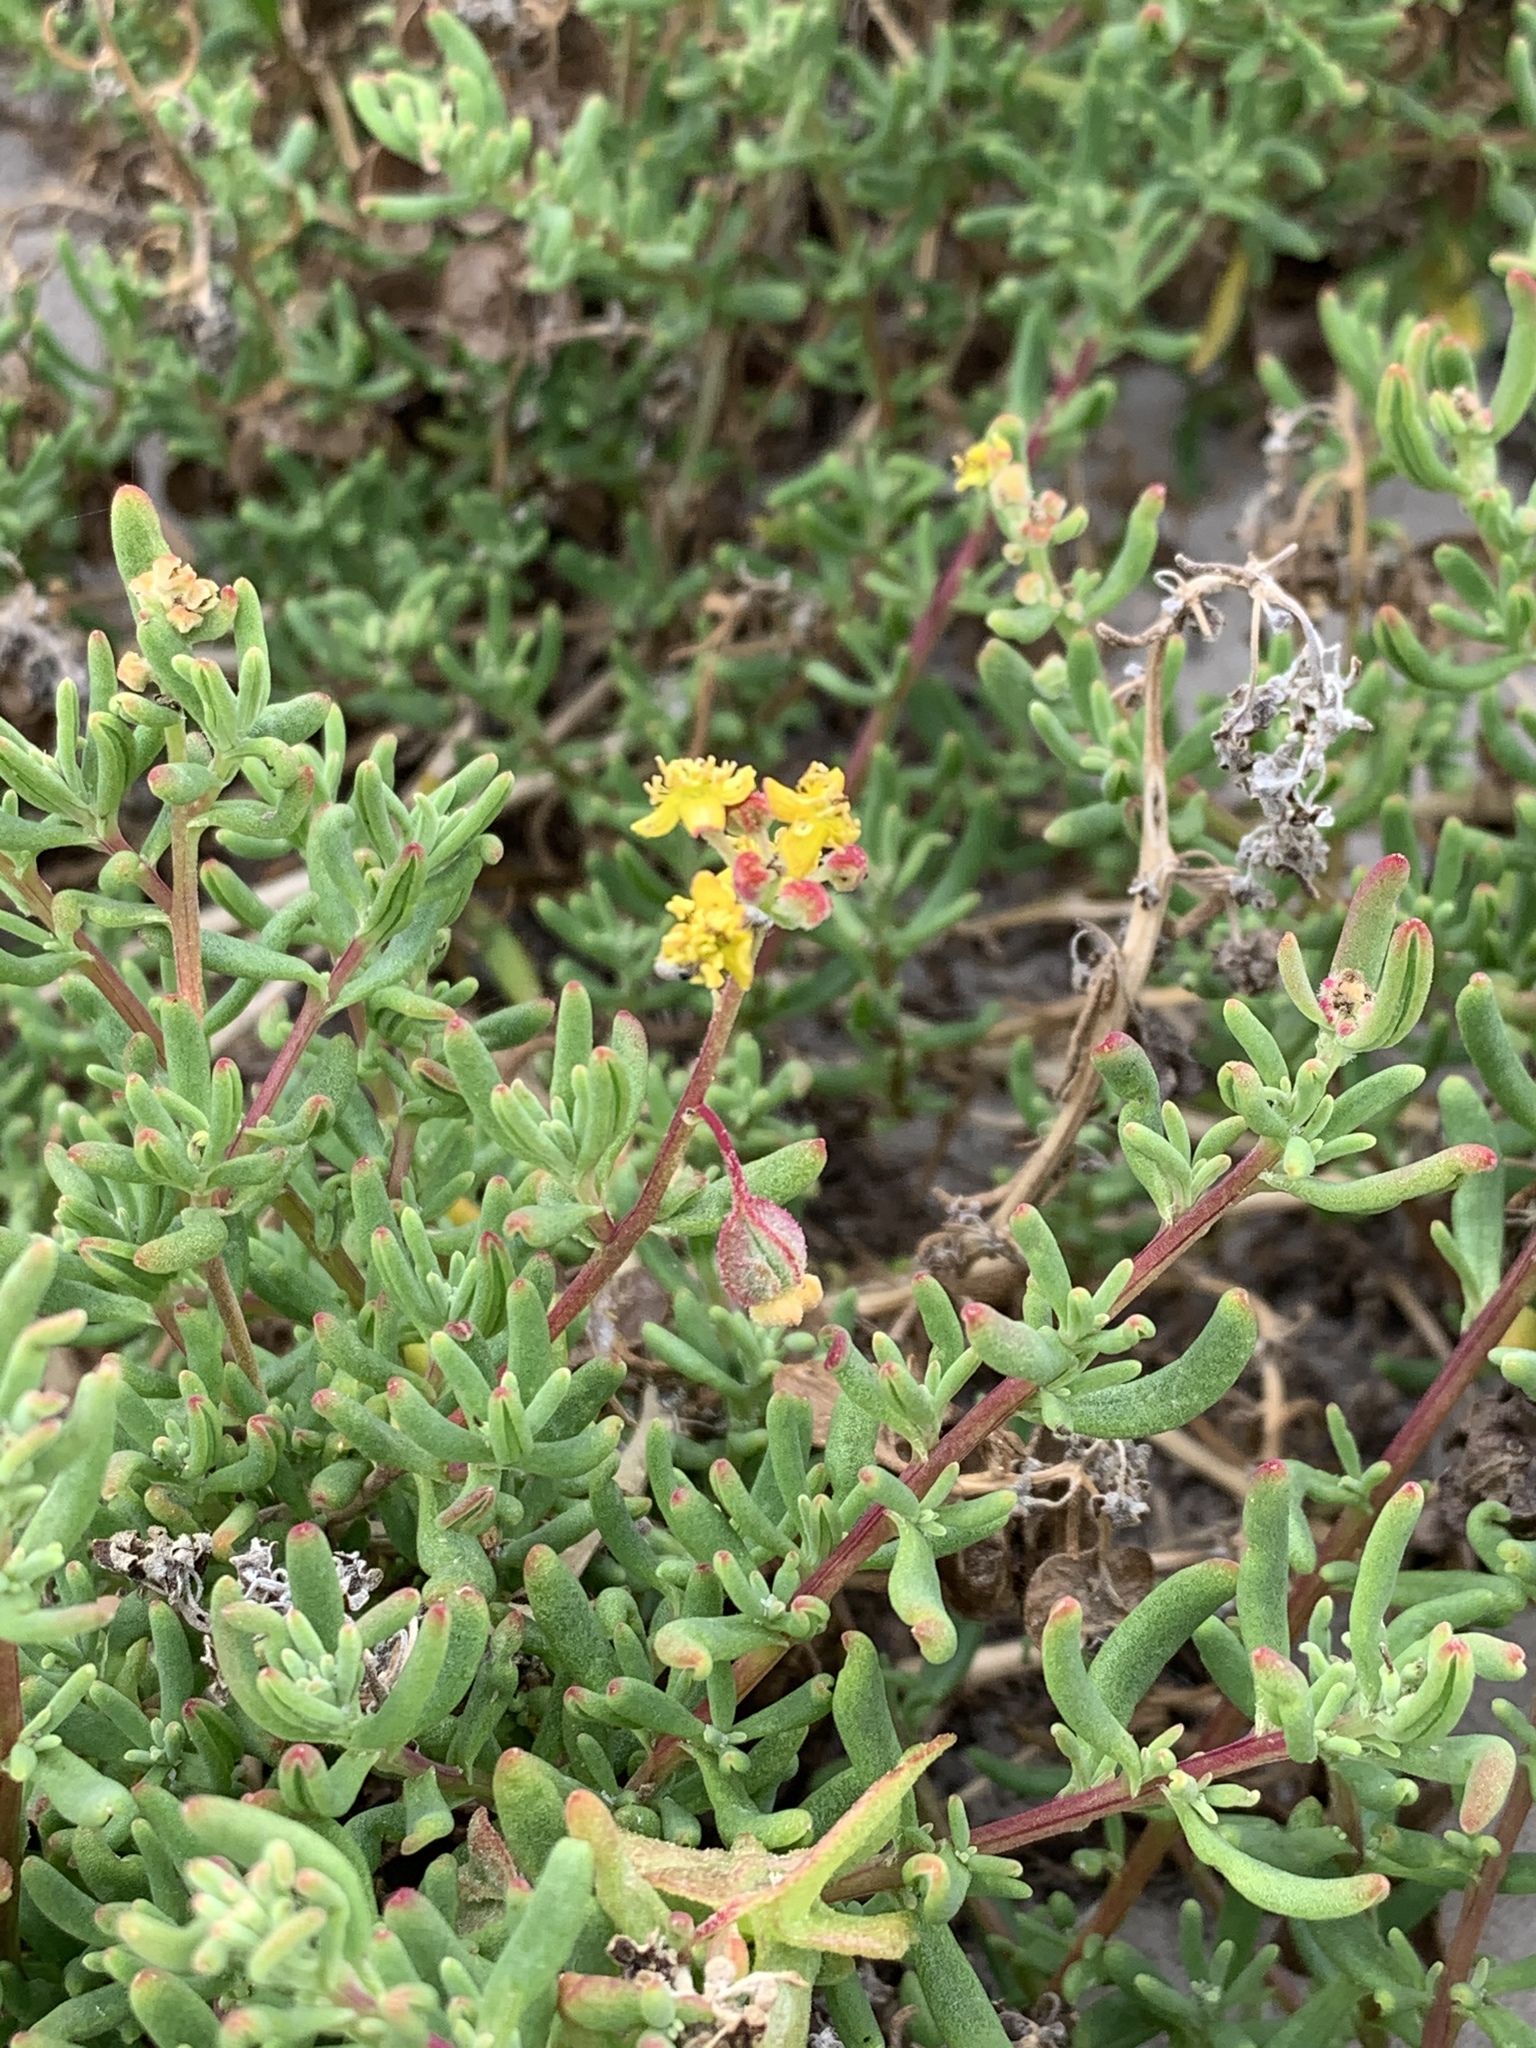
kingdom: Plantae
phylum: Tracheophyta
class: Magnoliopsida
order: Caryophyllales
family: Aizoaceae
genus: Tetragonia
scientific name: Tetragonia fruticosa
